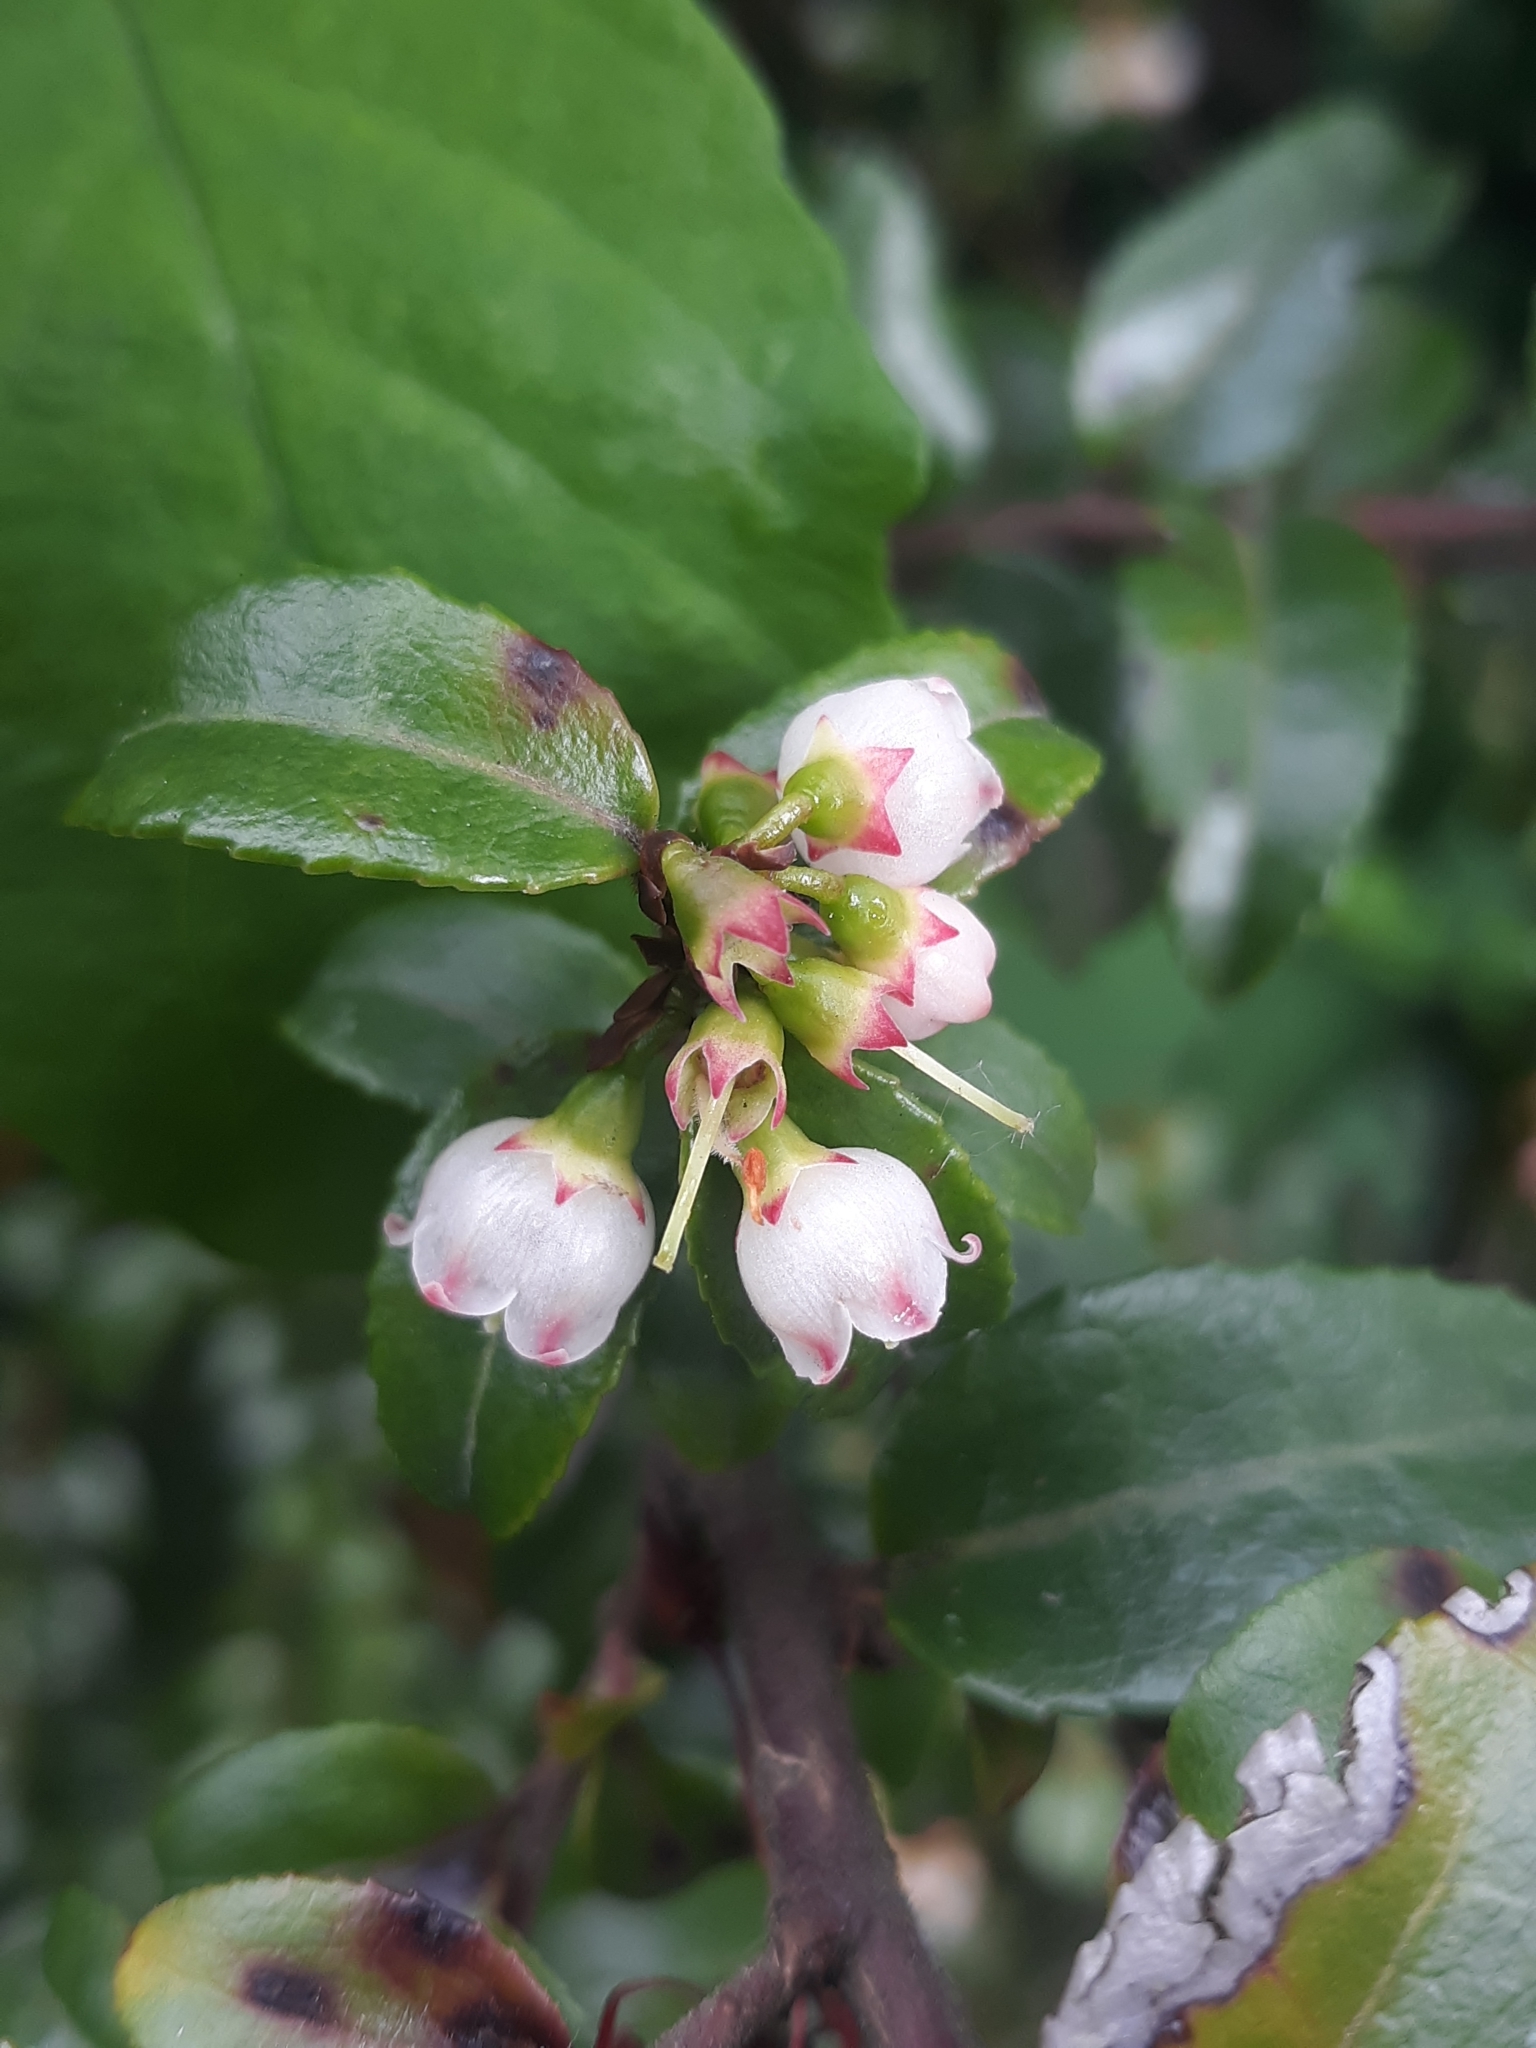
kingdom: Plantae
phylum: Tracheophyta
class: Magnoliopsida
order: Ericales
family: Ericaceae
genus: Vaccinium
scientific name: Vaccinium ovatum
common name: California-huckleberry
